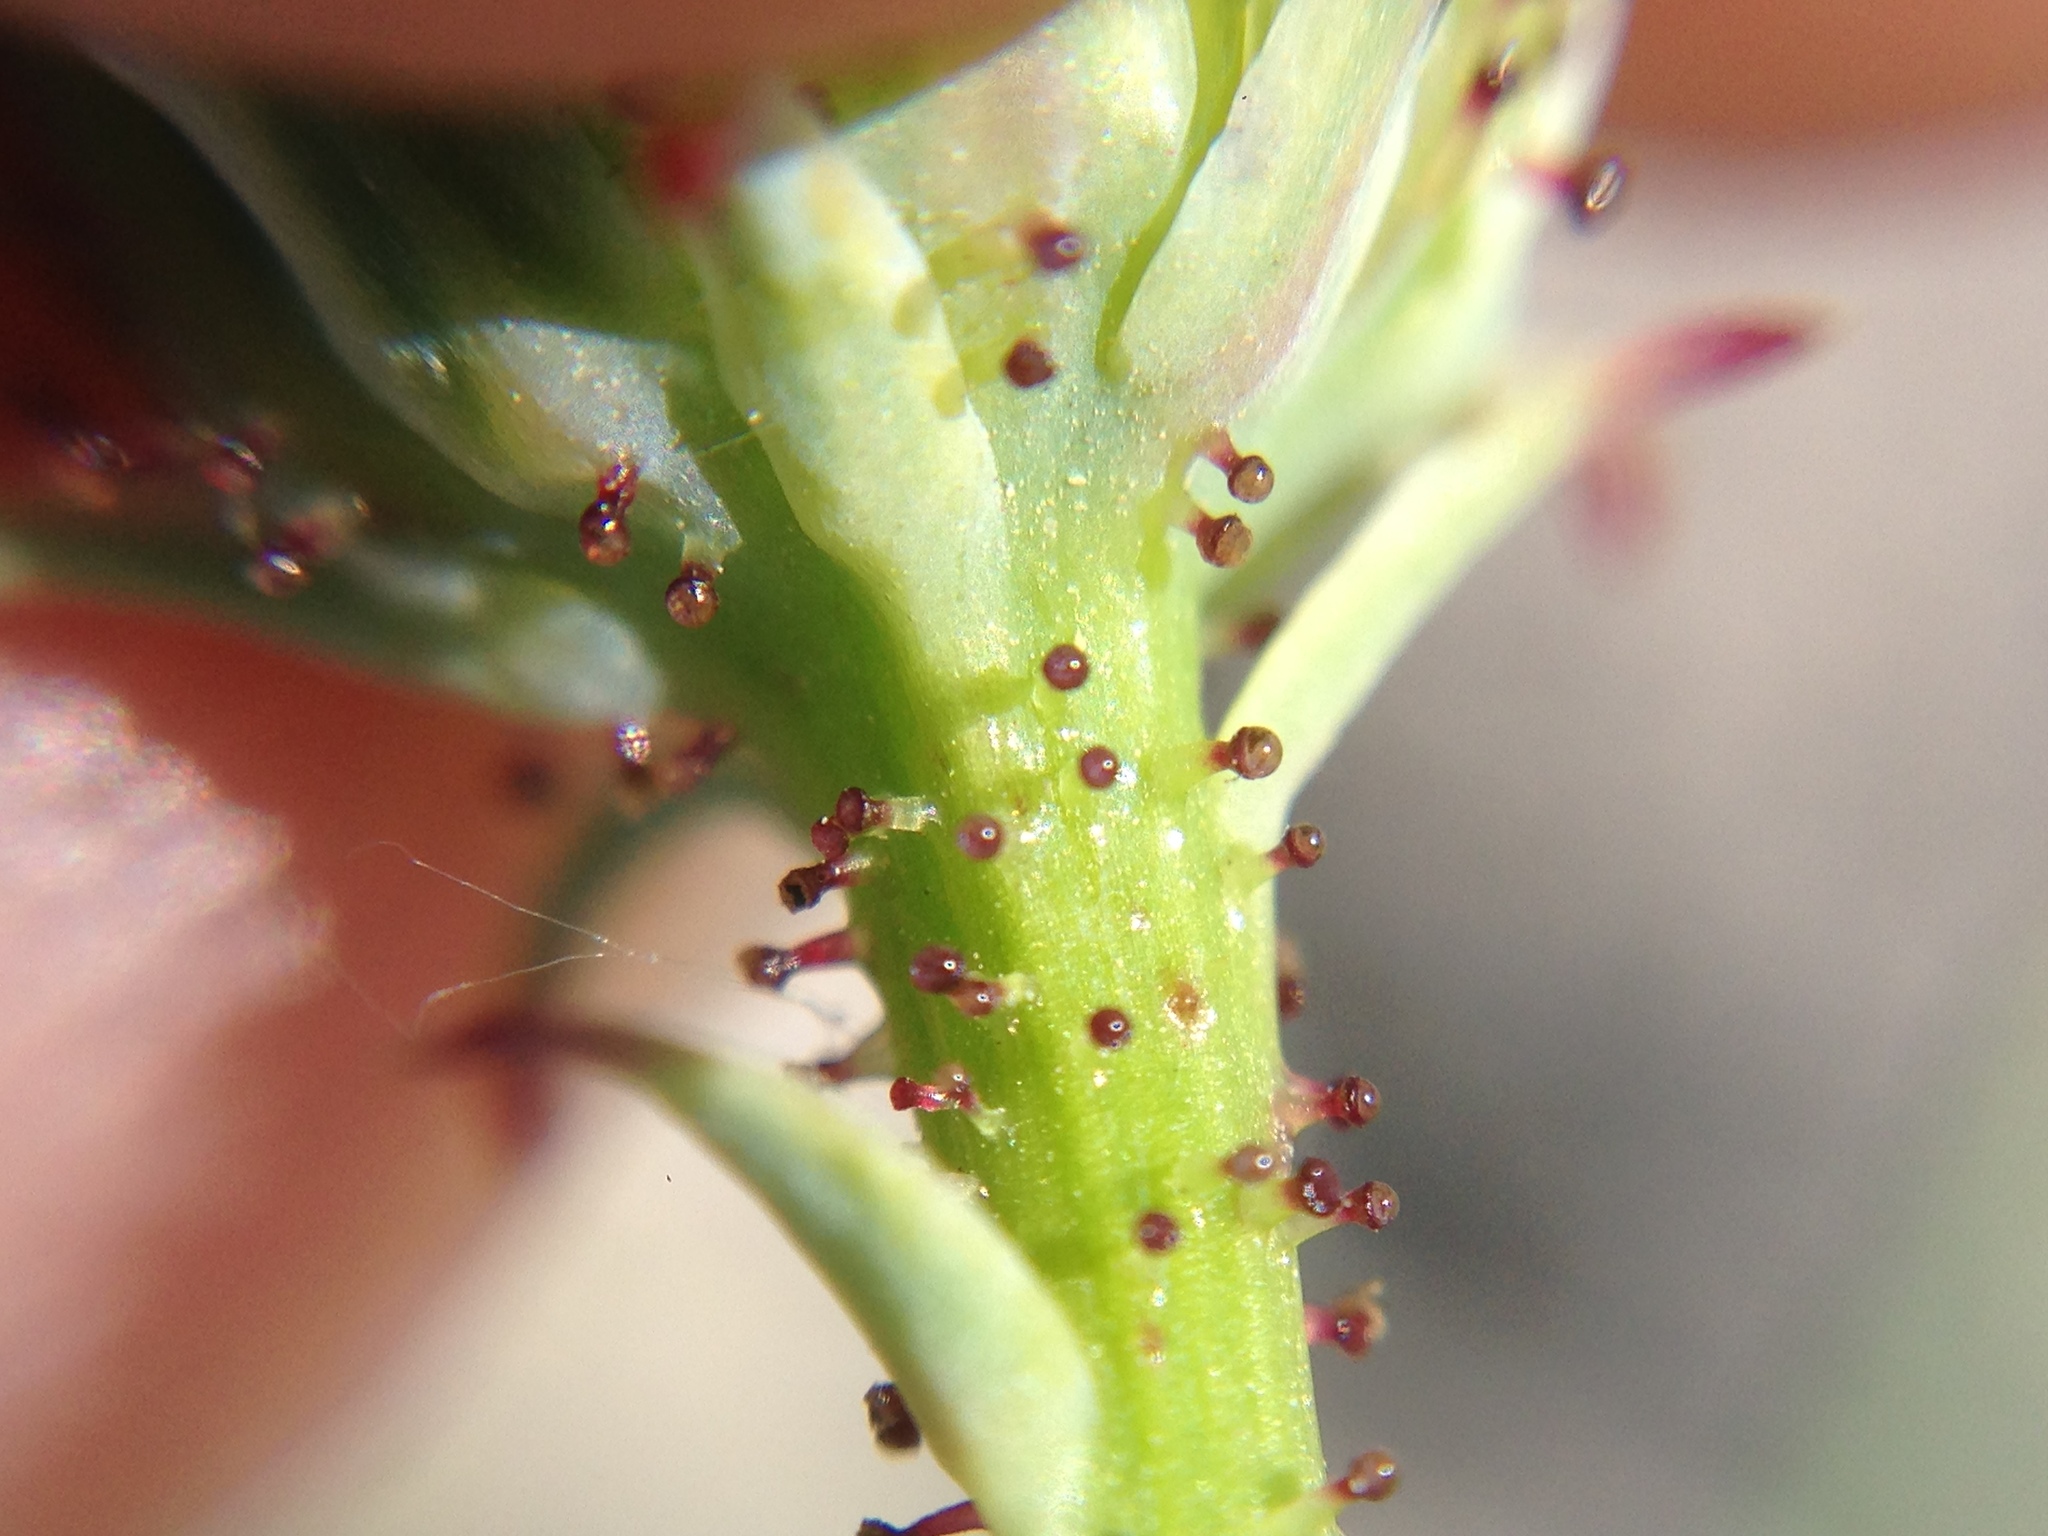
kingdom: Plantae
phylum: Tracheophyta
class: Magnoliopsida
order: Asterales
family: Asteraceae
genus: Calycoseris
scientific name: Calycoseris parryi
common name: Yellow tackstem
